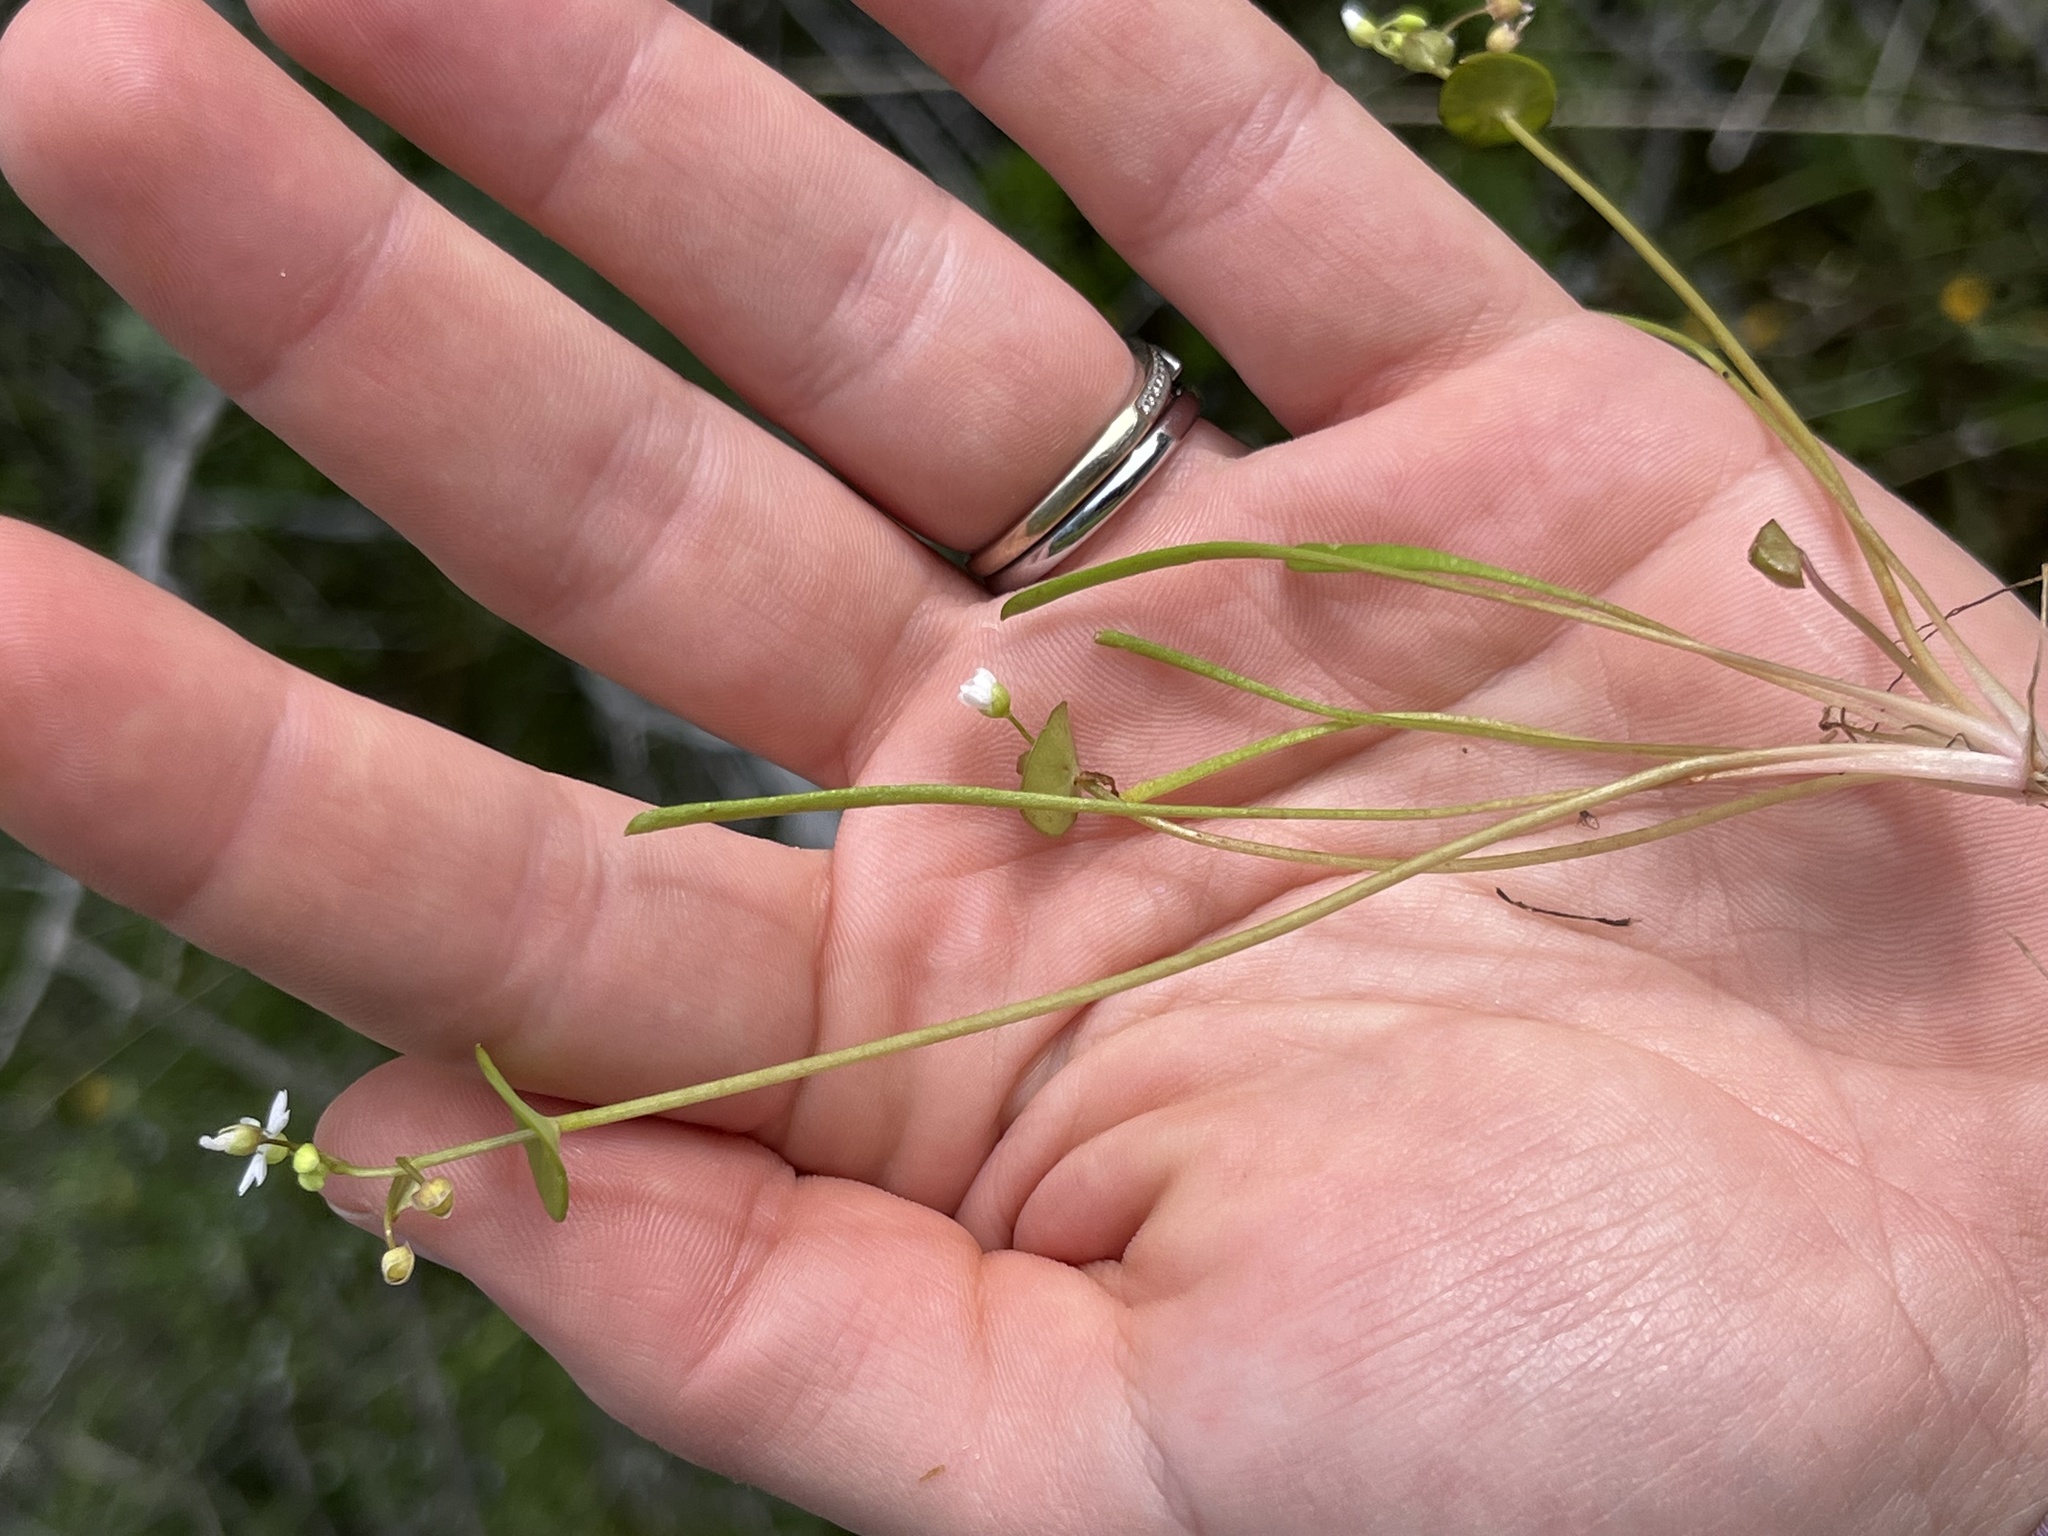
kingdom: Plantae
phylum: Tracheophyta
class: Magnoliopsida
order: Caryophyllales
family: Montiaceae
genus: Claytonia
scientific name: Claytonia parviflora
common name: Indian-lettuce
